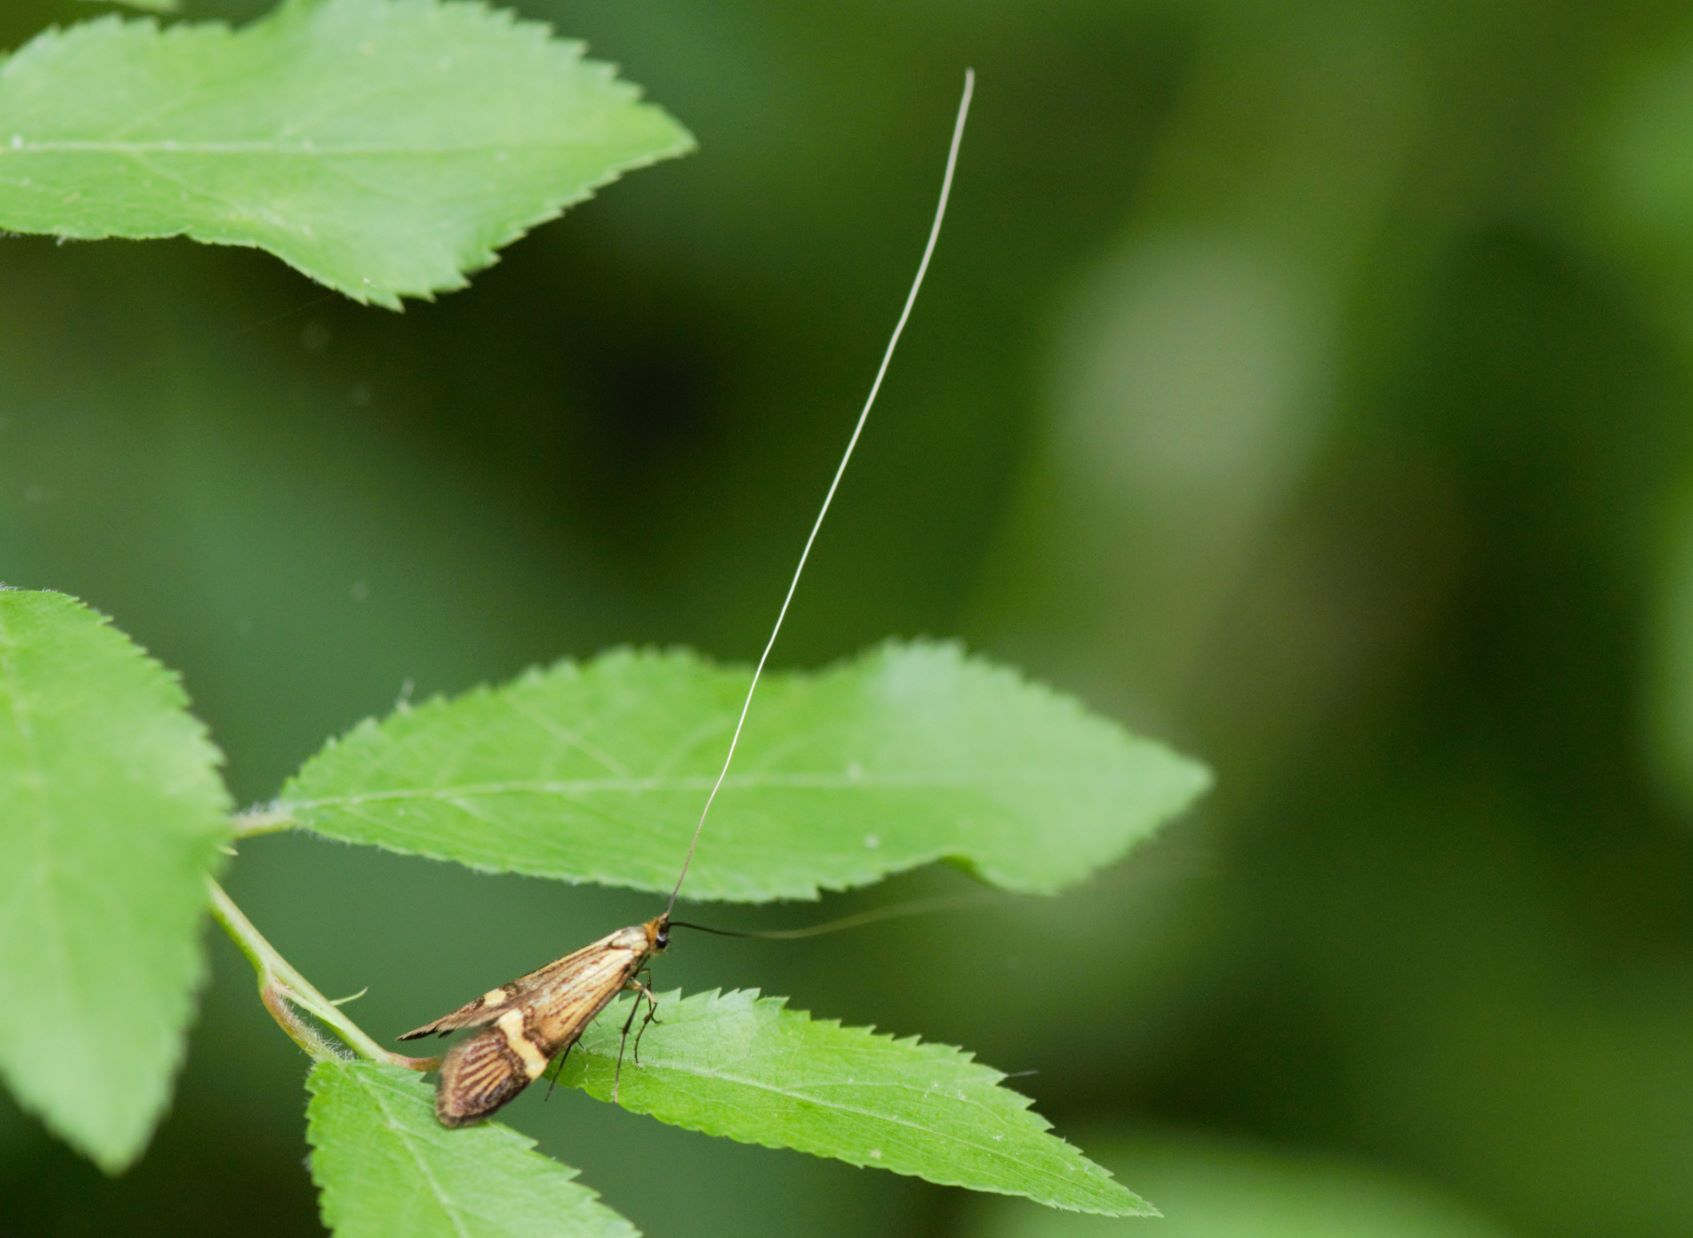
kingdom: Animalia
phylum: Arthropoda
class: Insecta
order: Lepidoptera
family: Adelidae
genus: Nemophora
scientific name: Nemophora degeerella
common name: Yellow-barred long-horn
